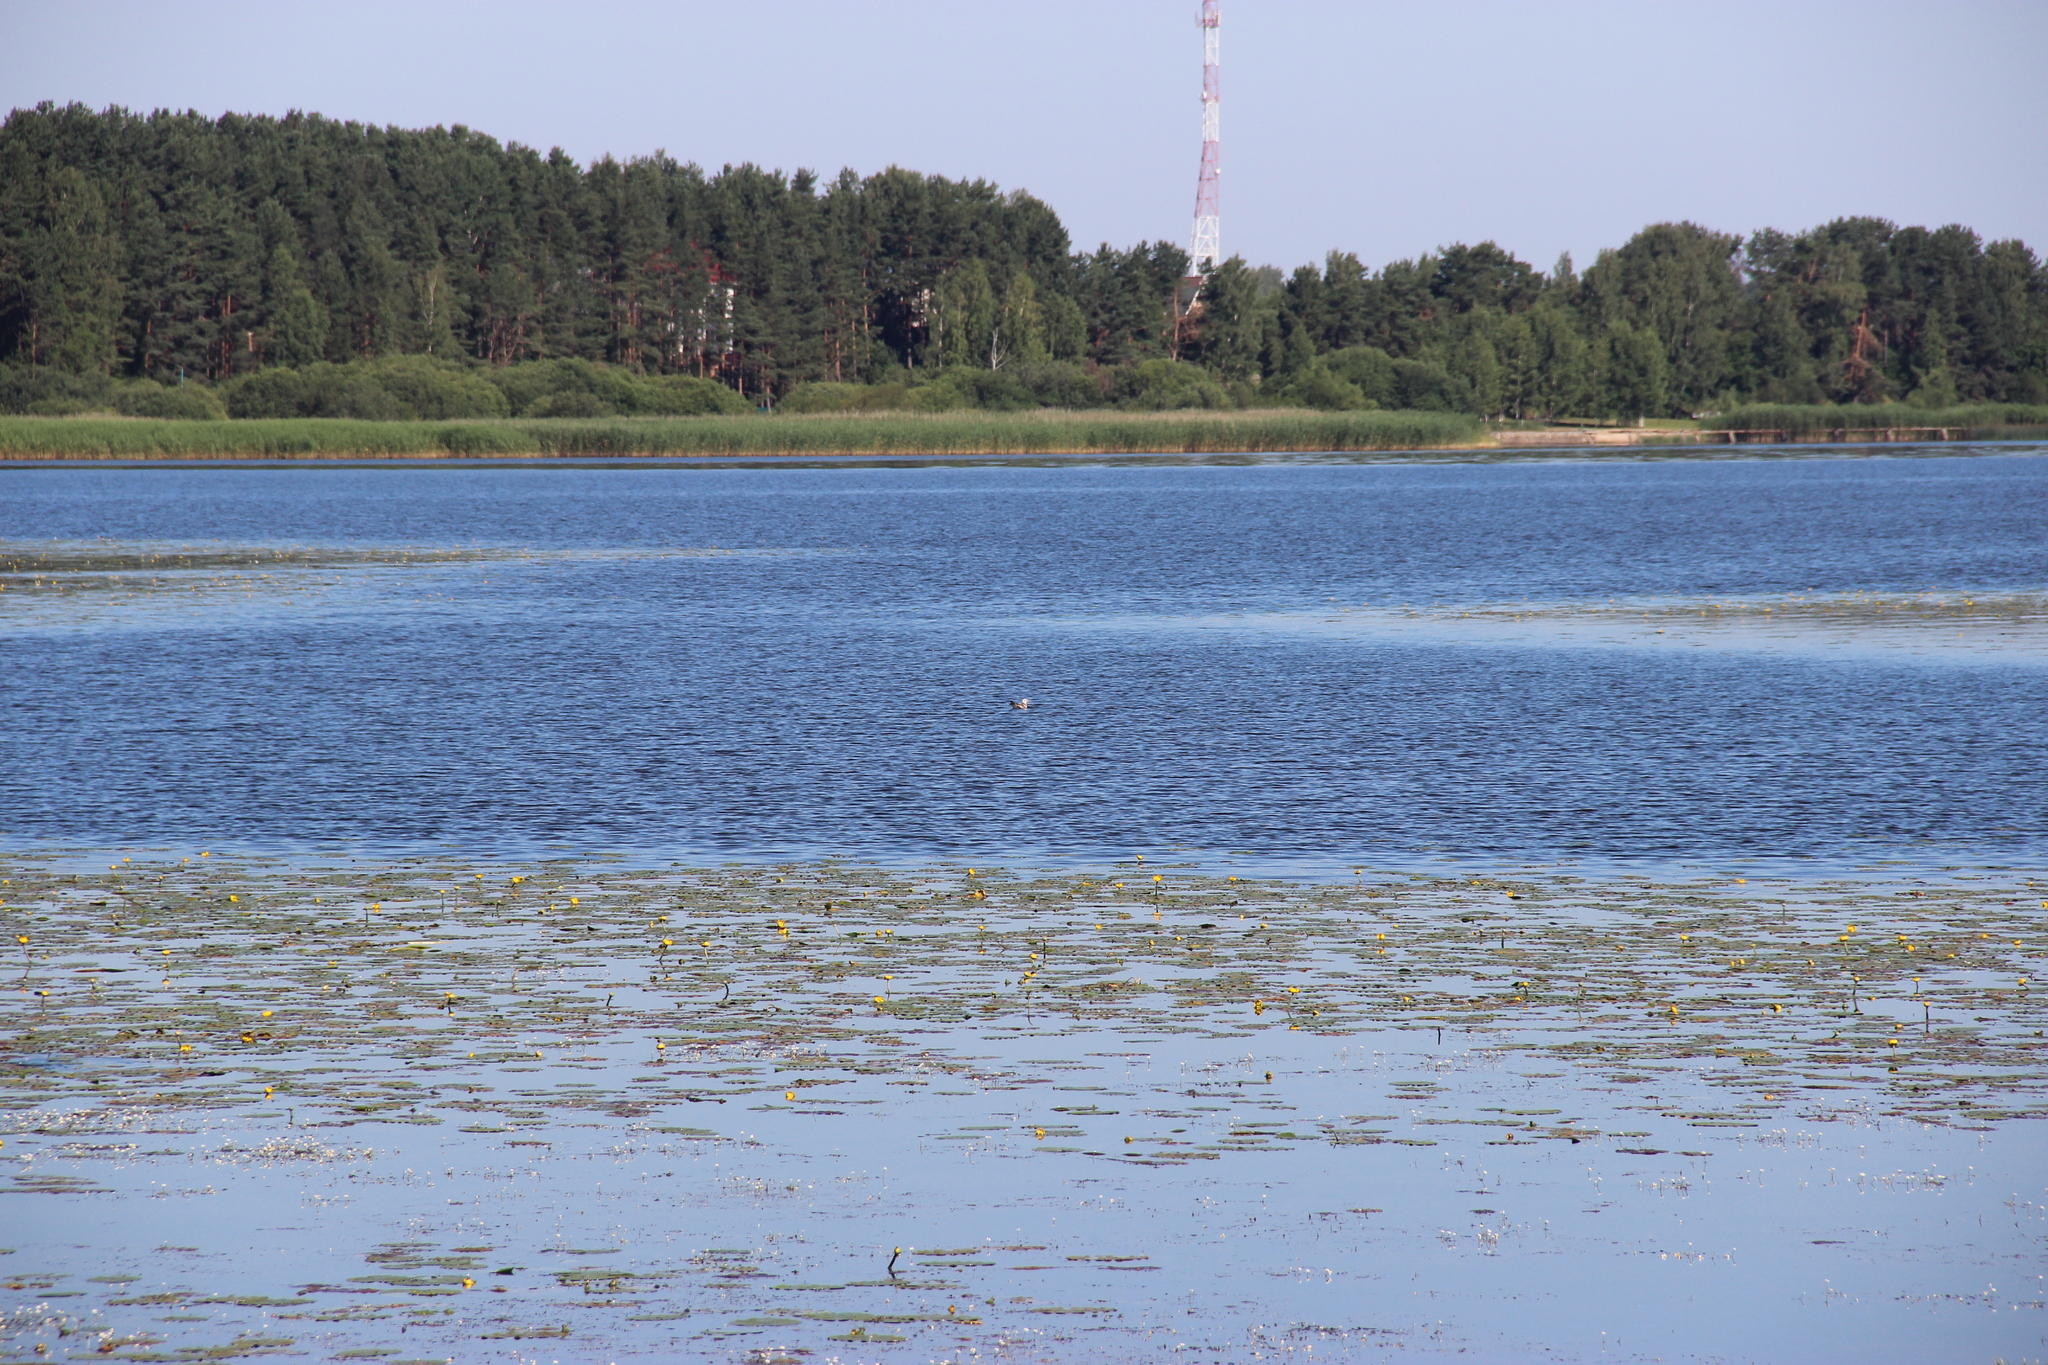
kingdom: Plantae
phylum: Tracheophyta
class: Magnoliopsida
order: Nymphaeales
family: Nymphaeaceae
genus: Nuphar
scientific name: Nuphar lutea
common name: Yellow water-lily
